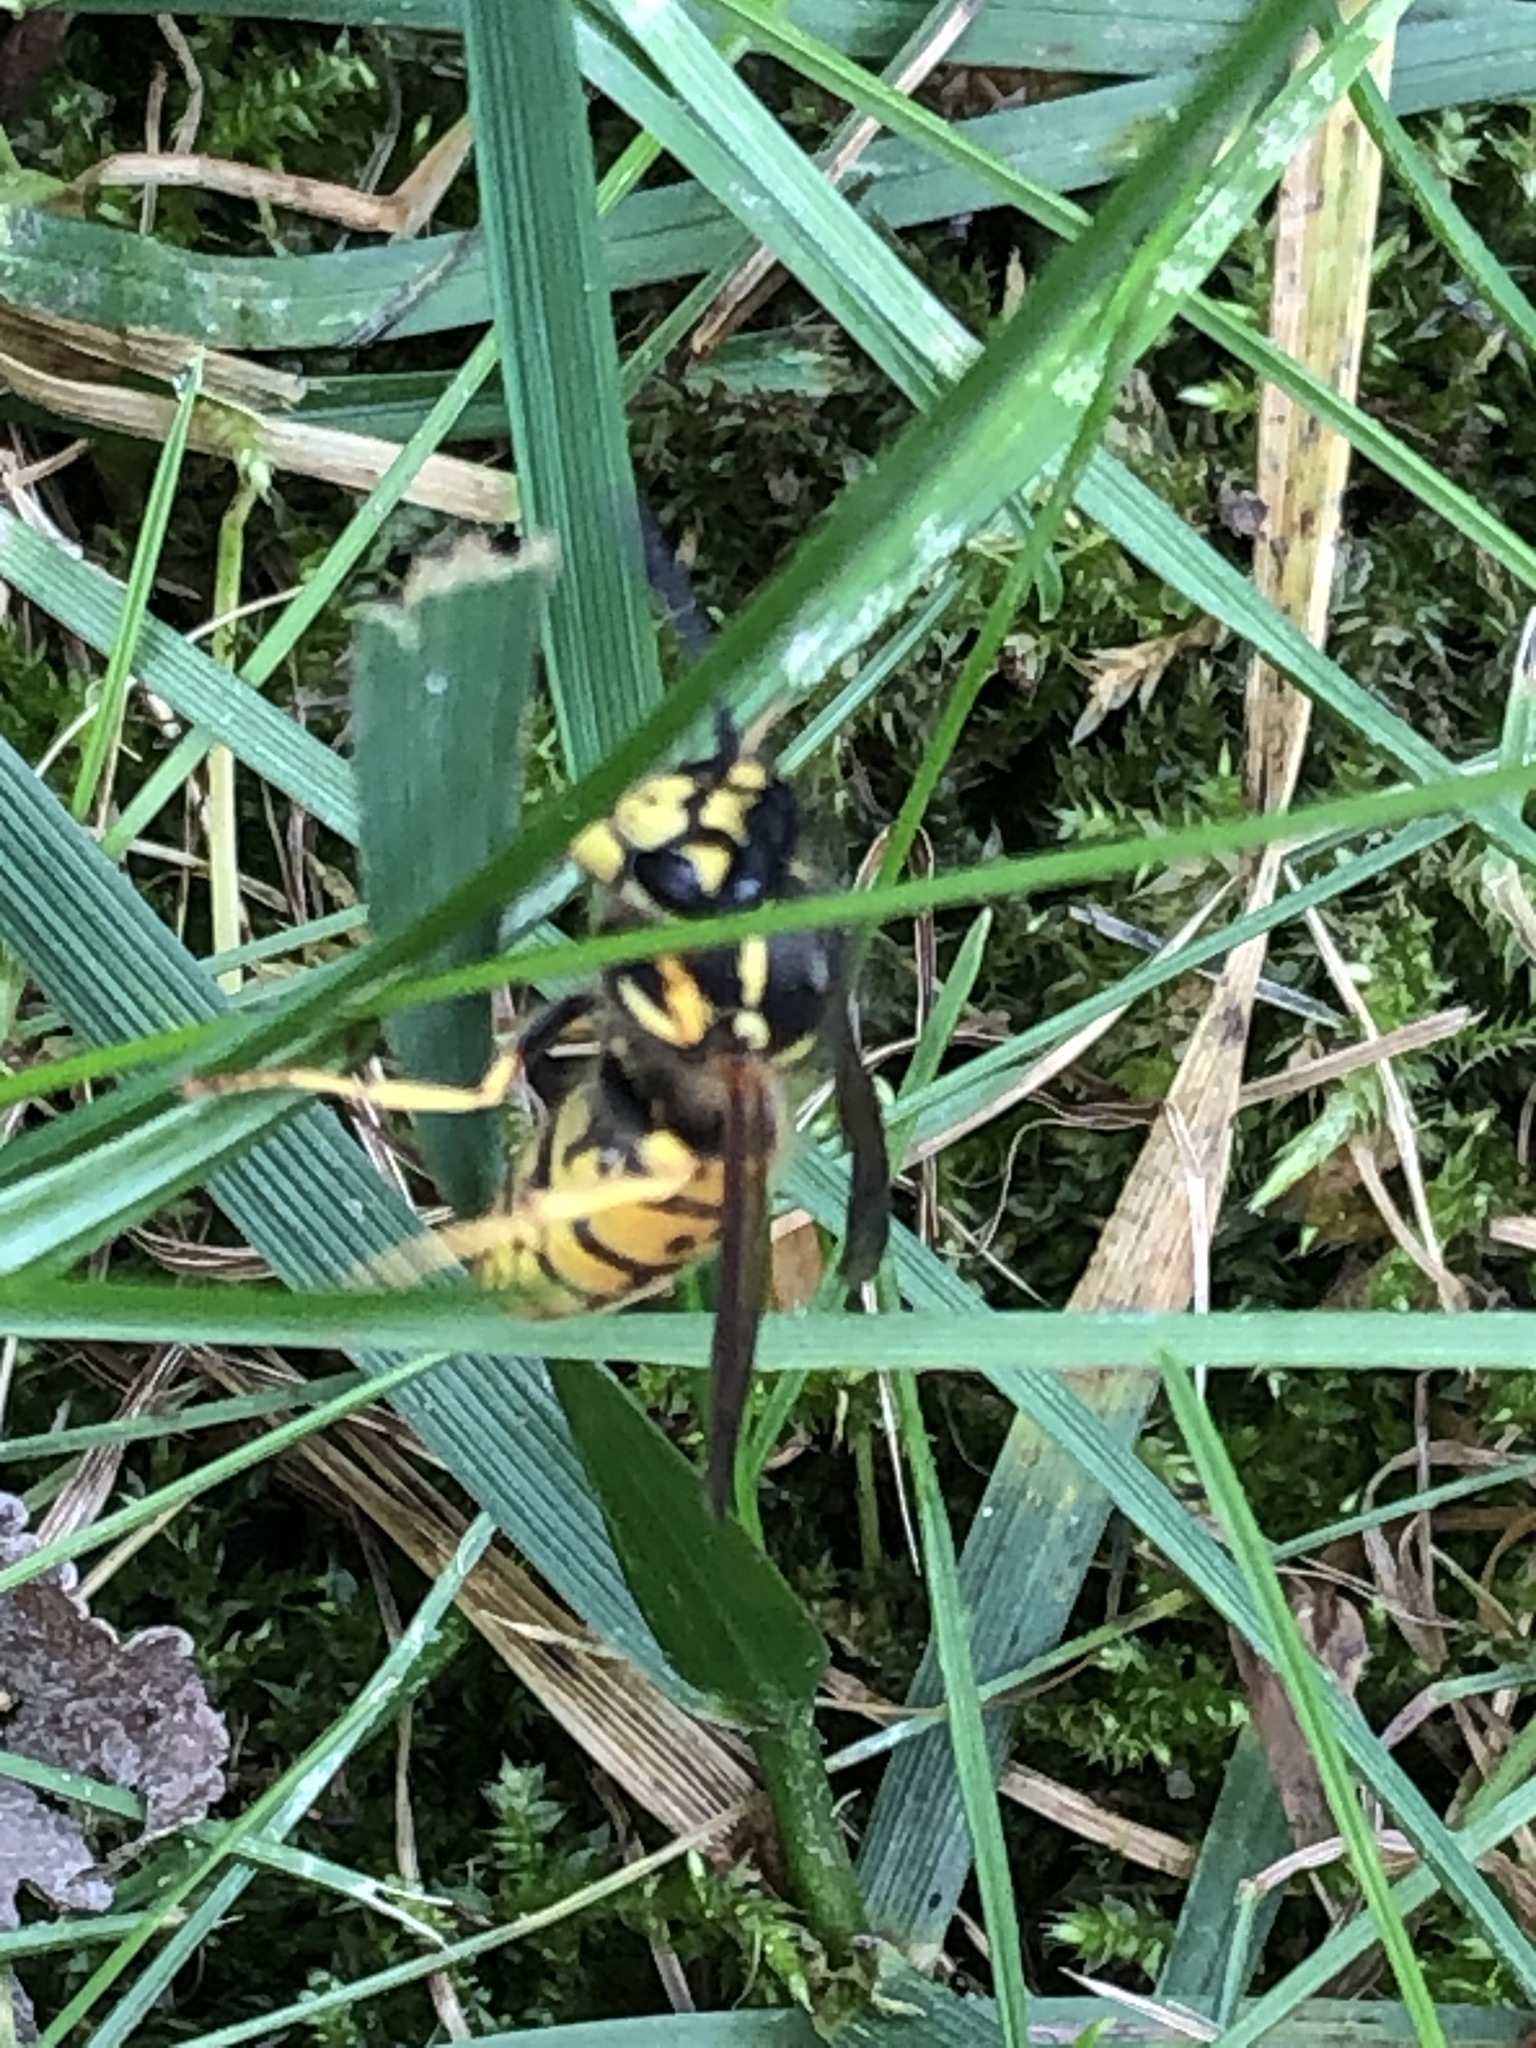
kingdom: Animalia
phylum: Arthropoda
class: Insecta
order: Hymenoptera
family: Vespidae
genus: Vespula
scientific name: Vespula germanica
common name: German wasp
